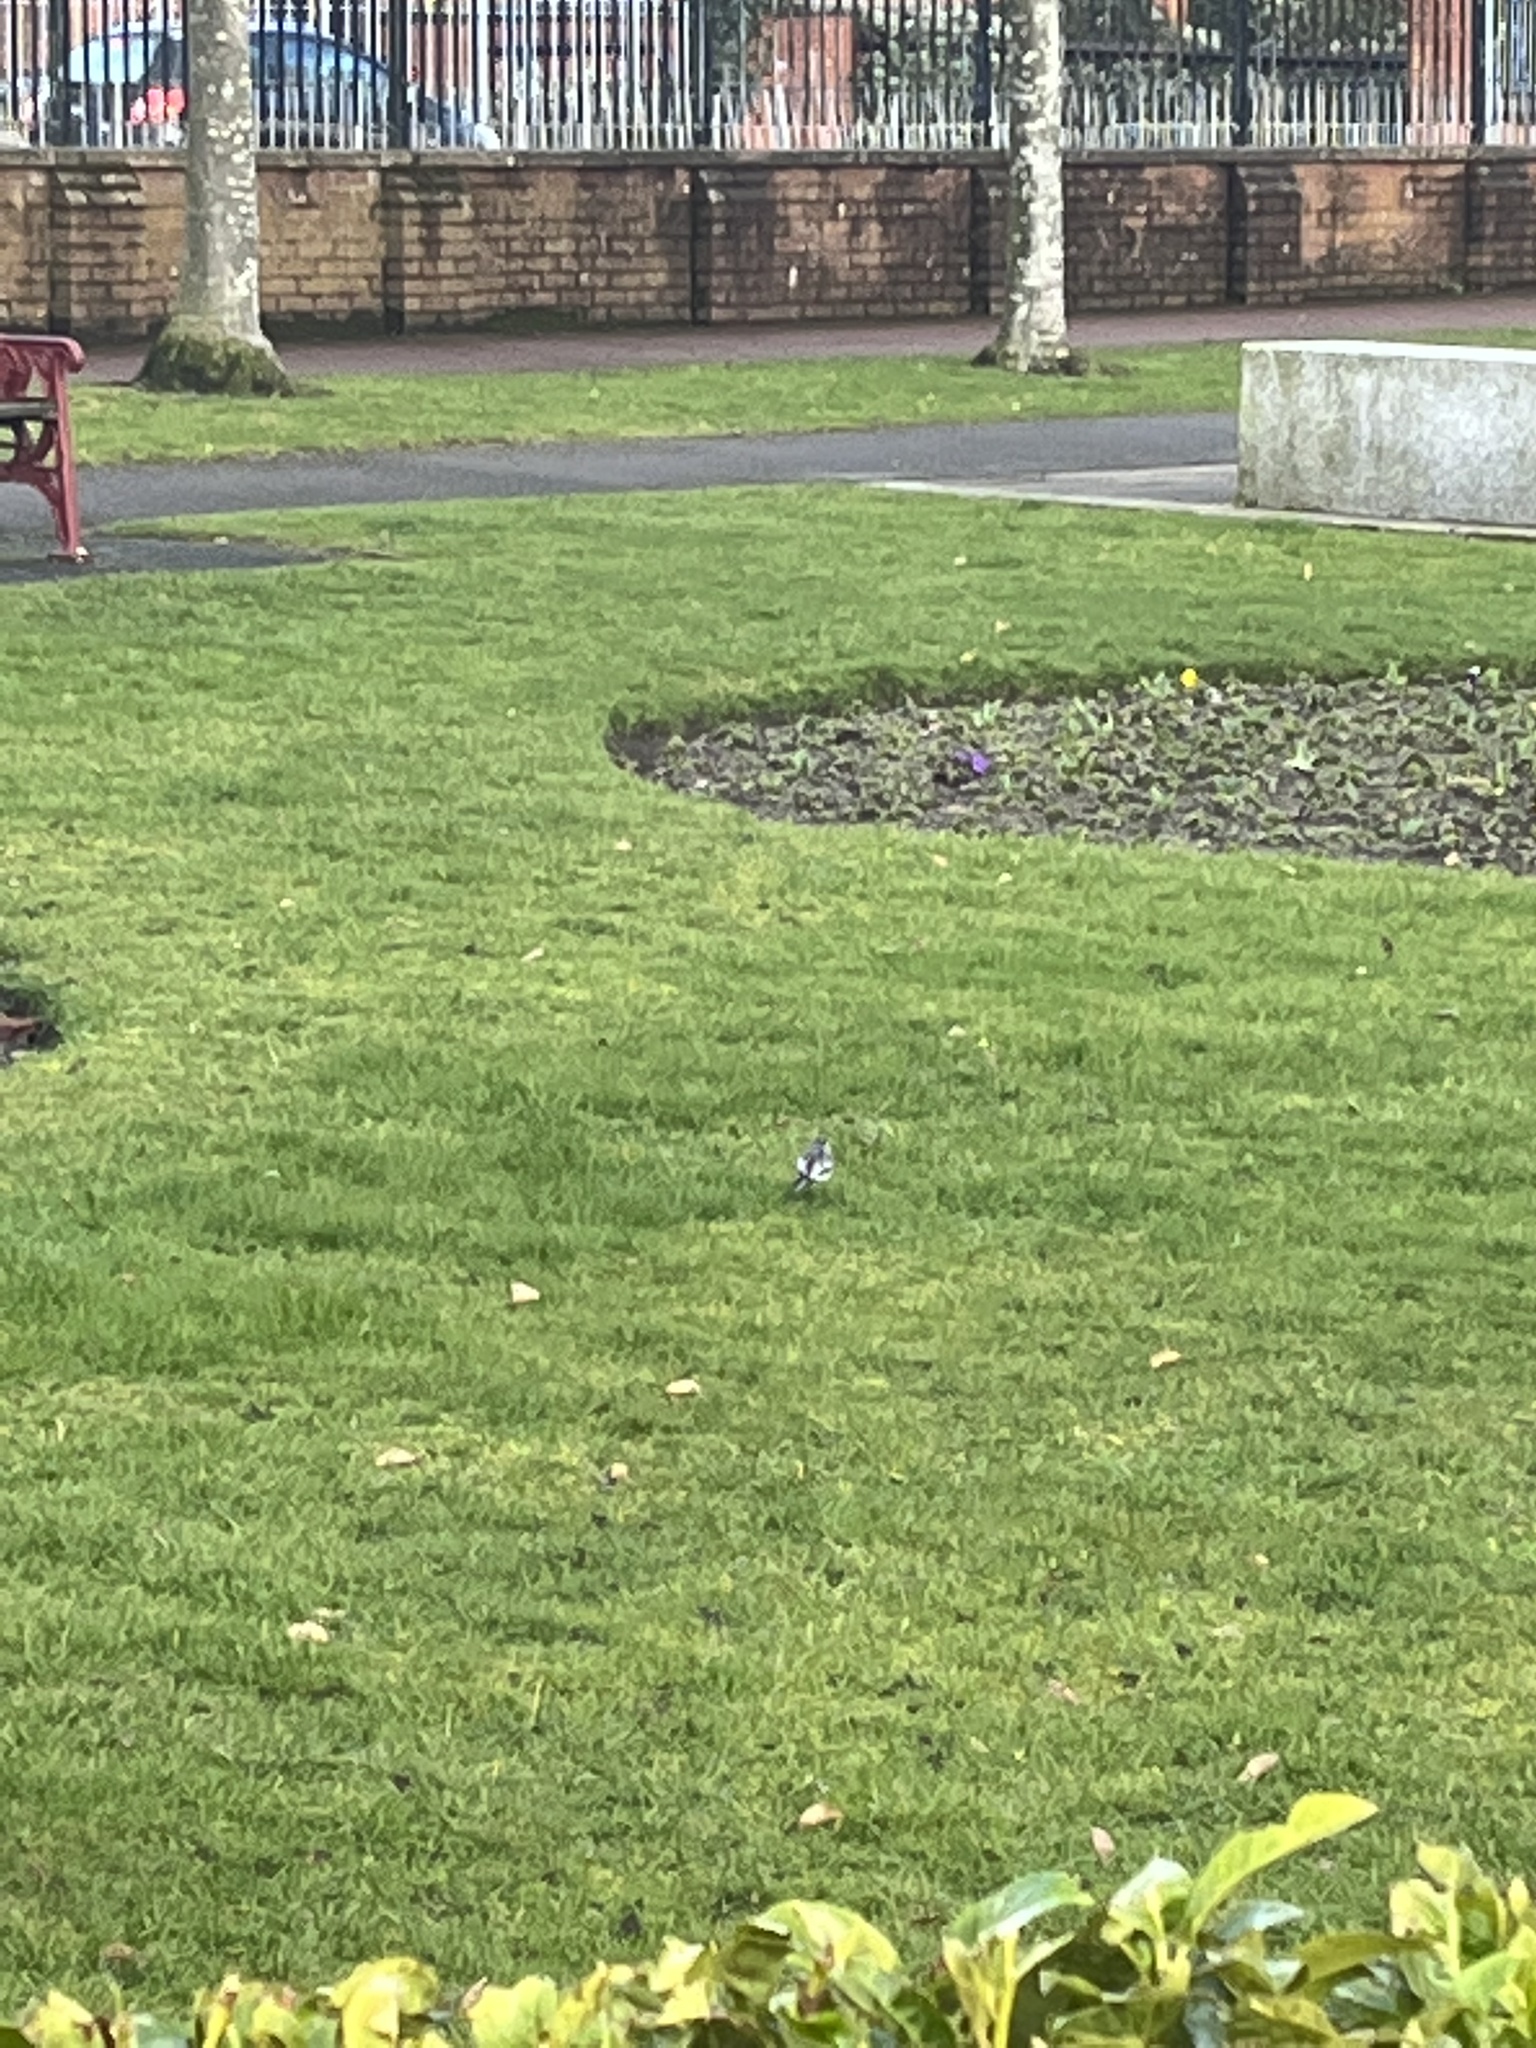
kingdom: Animalia
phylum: Chordata
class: Aves
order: Passeriformes
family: Motacillidae
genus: Motacilla
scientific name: Motacilla alba
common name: White wagtail
